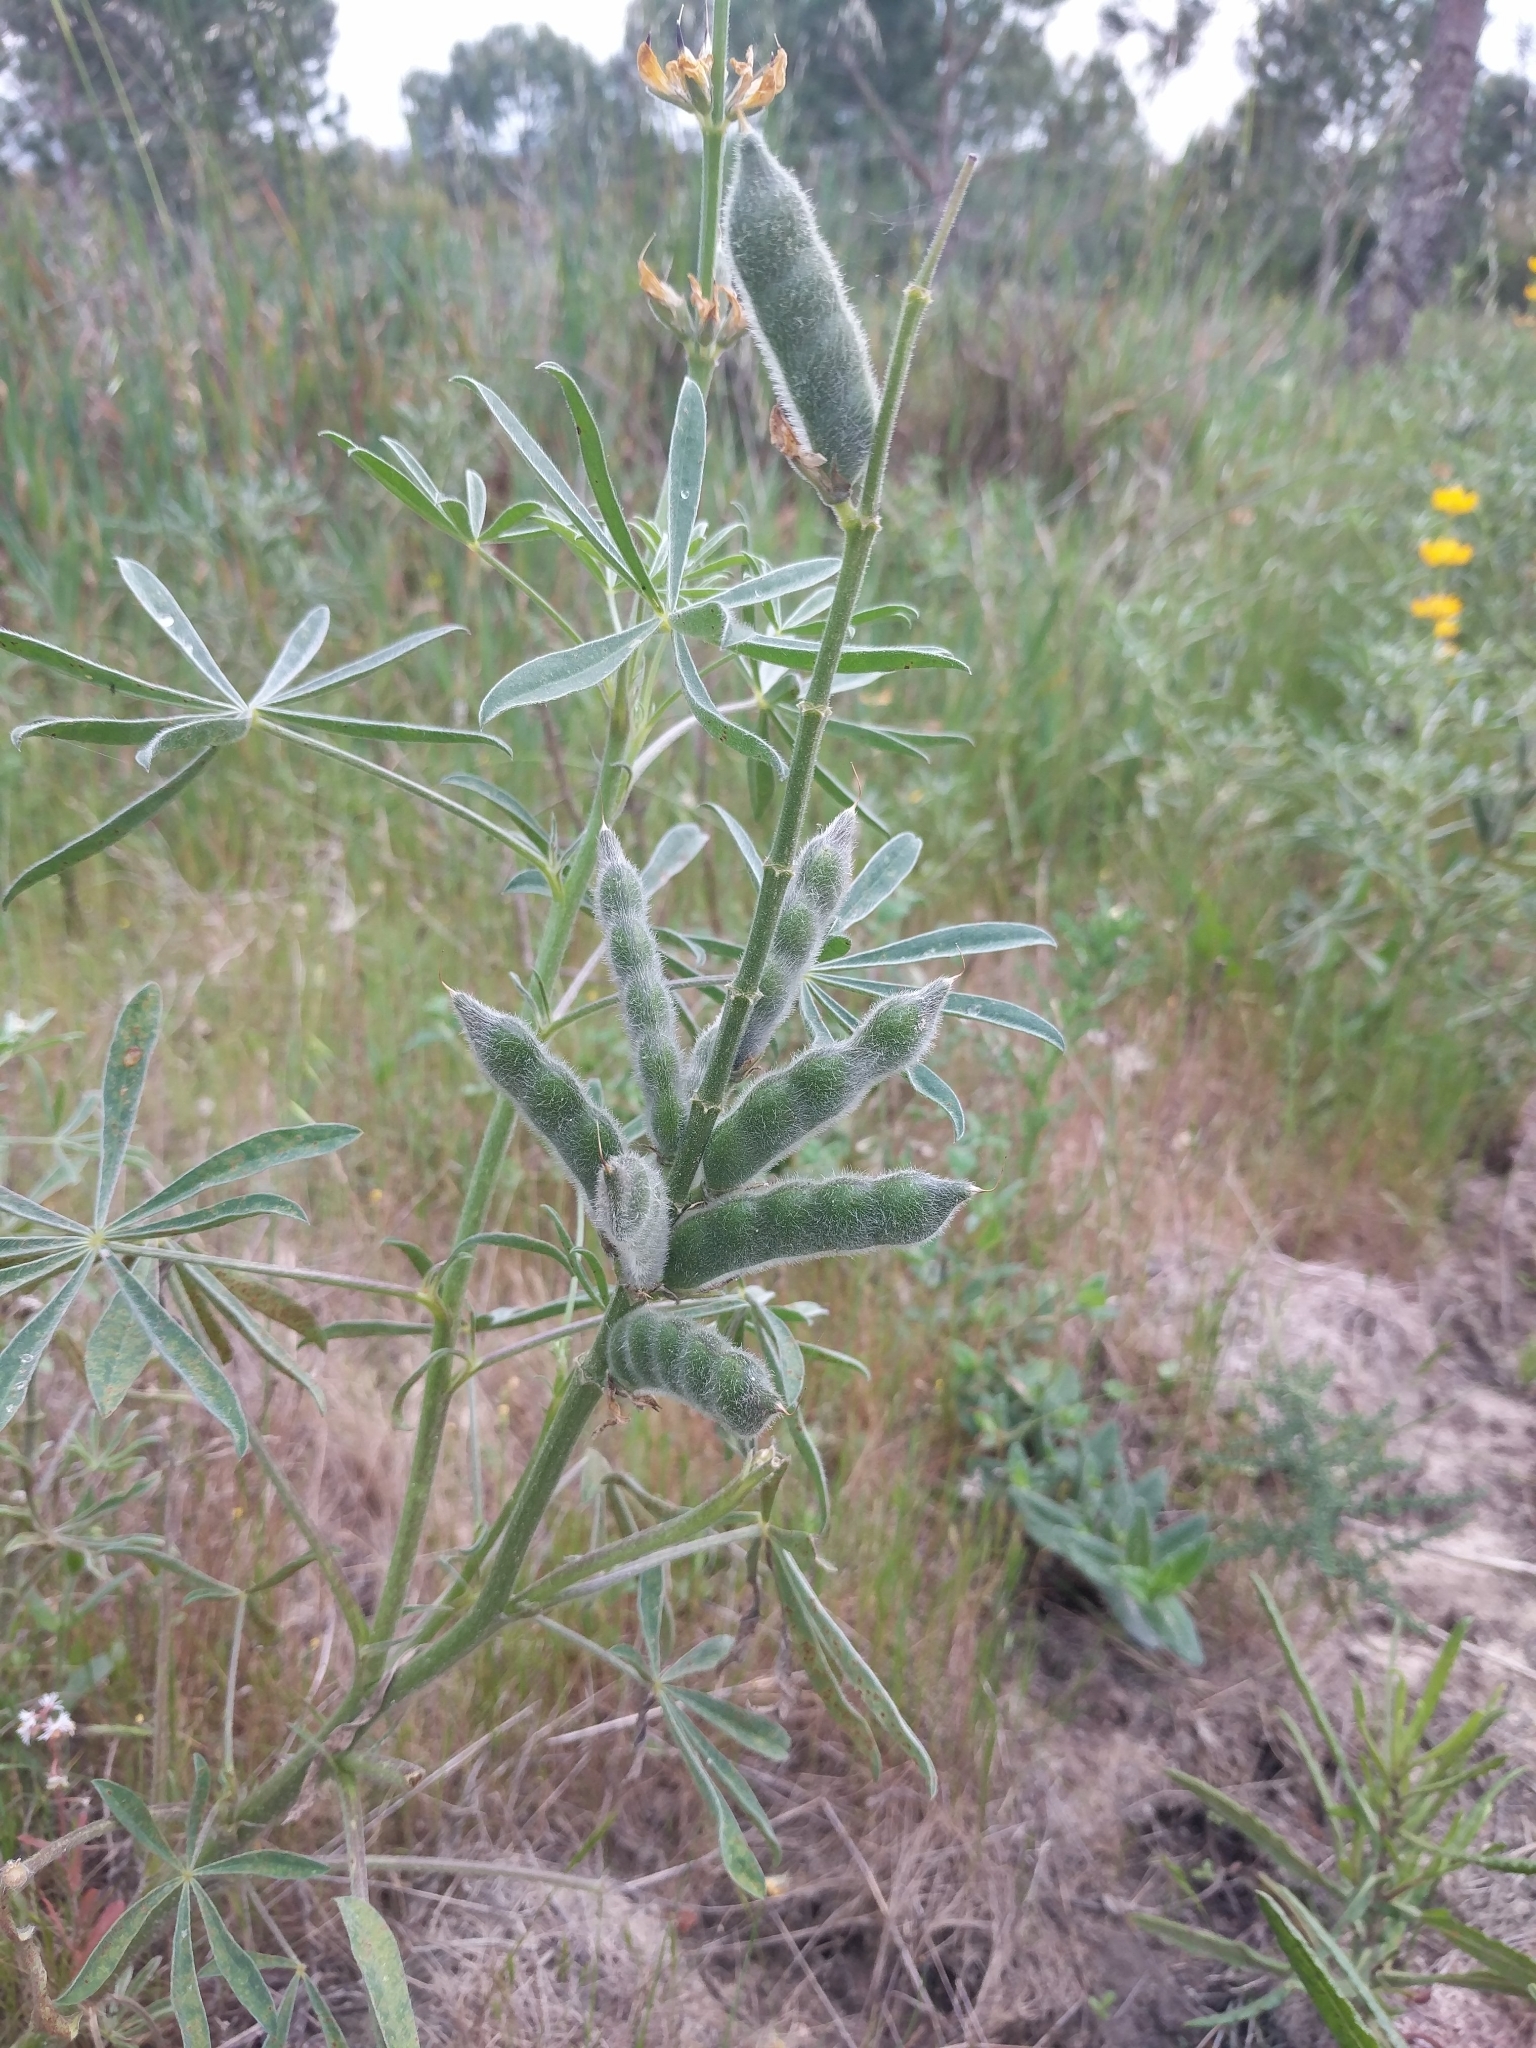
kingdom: Plantae
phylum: Tracheophyta
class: Magnoliopsida
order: Fabales
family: Fabaceae
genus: Lupinus
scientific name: Lupinus luteus
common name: European yellow lupine
